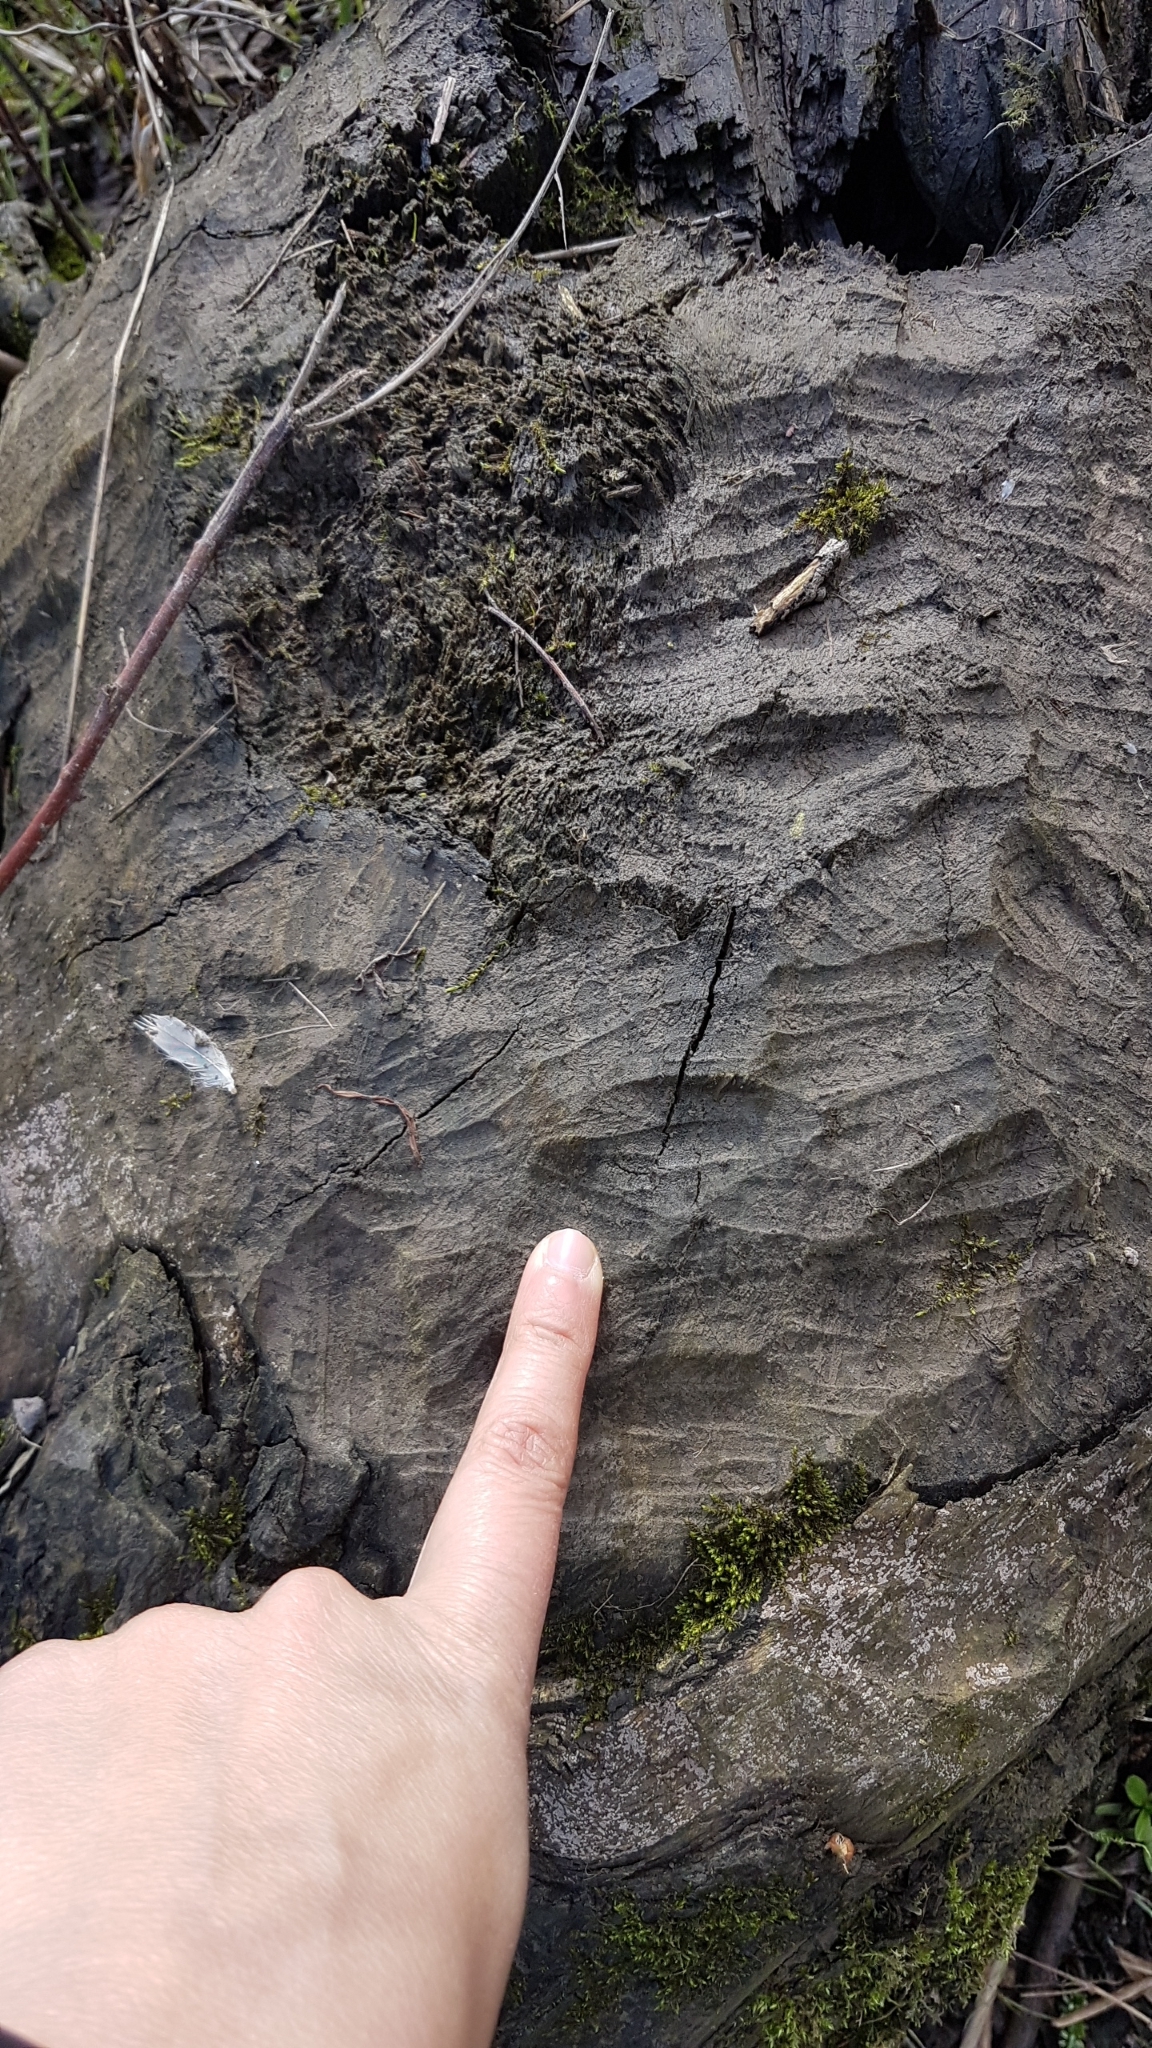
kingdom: Animalia
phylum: Chordata
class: Mammalia
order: Rodentia
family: Castoridae
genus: Castor
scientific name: Castor fiber
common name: Eurasian beaver
